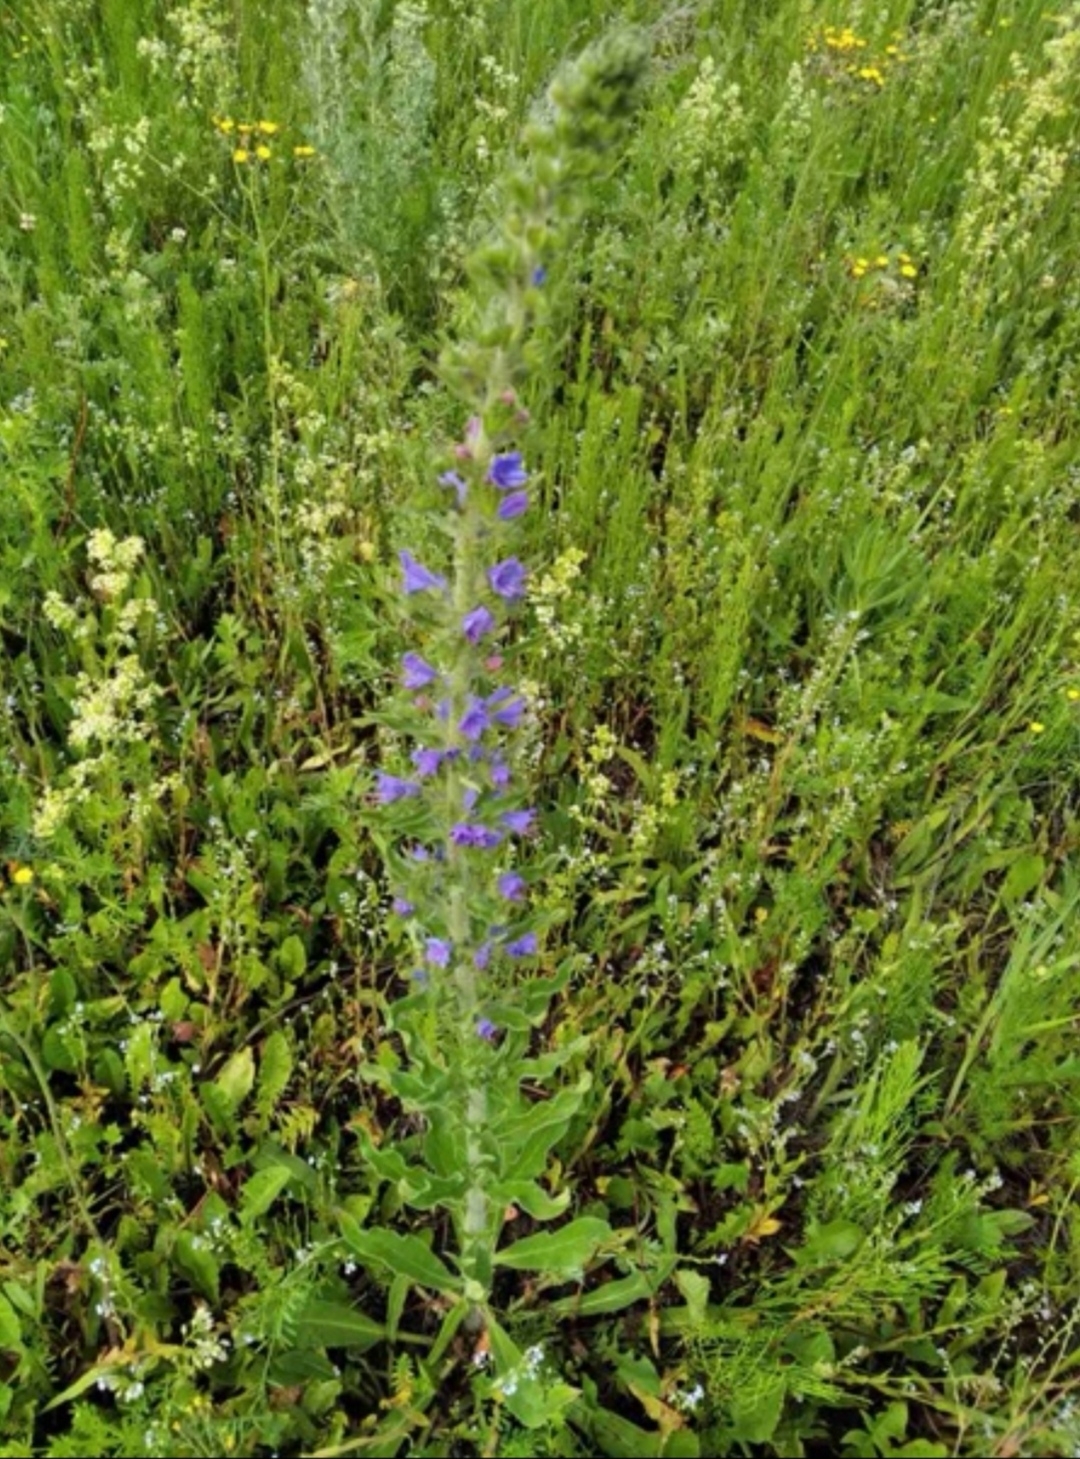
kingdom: Plantae
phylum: Tracheophyta
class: Magnoliopsida
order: Boraginales
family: Boraginaceae
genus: Echium
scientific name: Echium vulgare
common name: Common viper's bugloss
